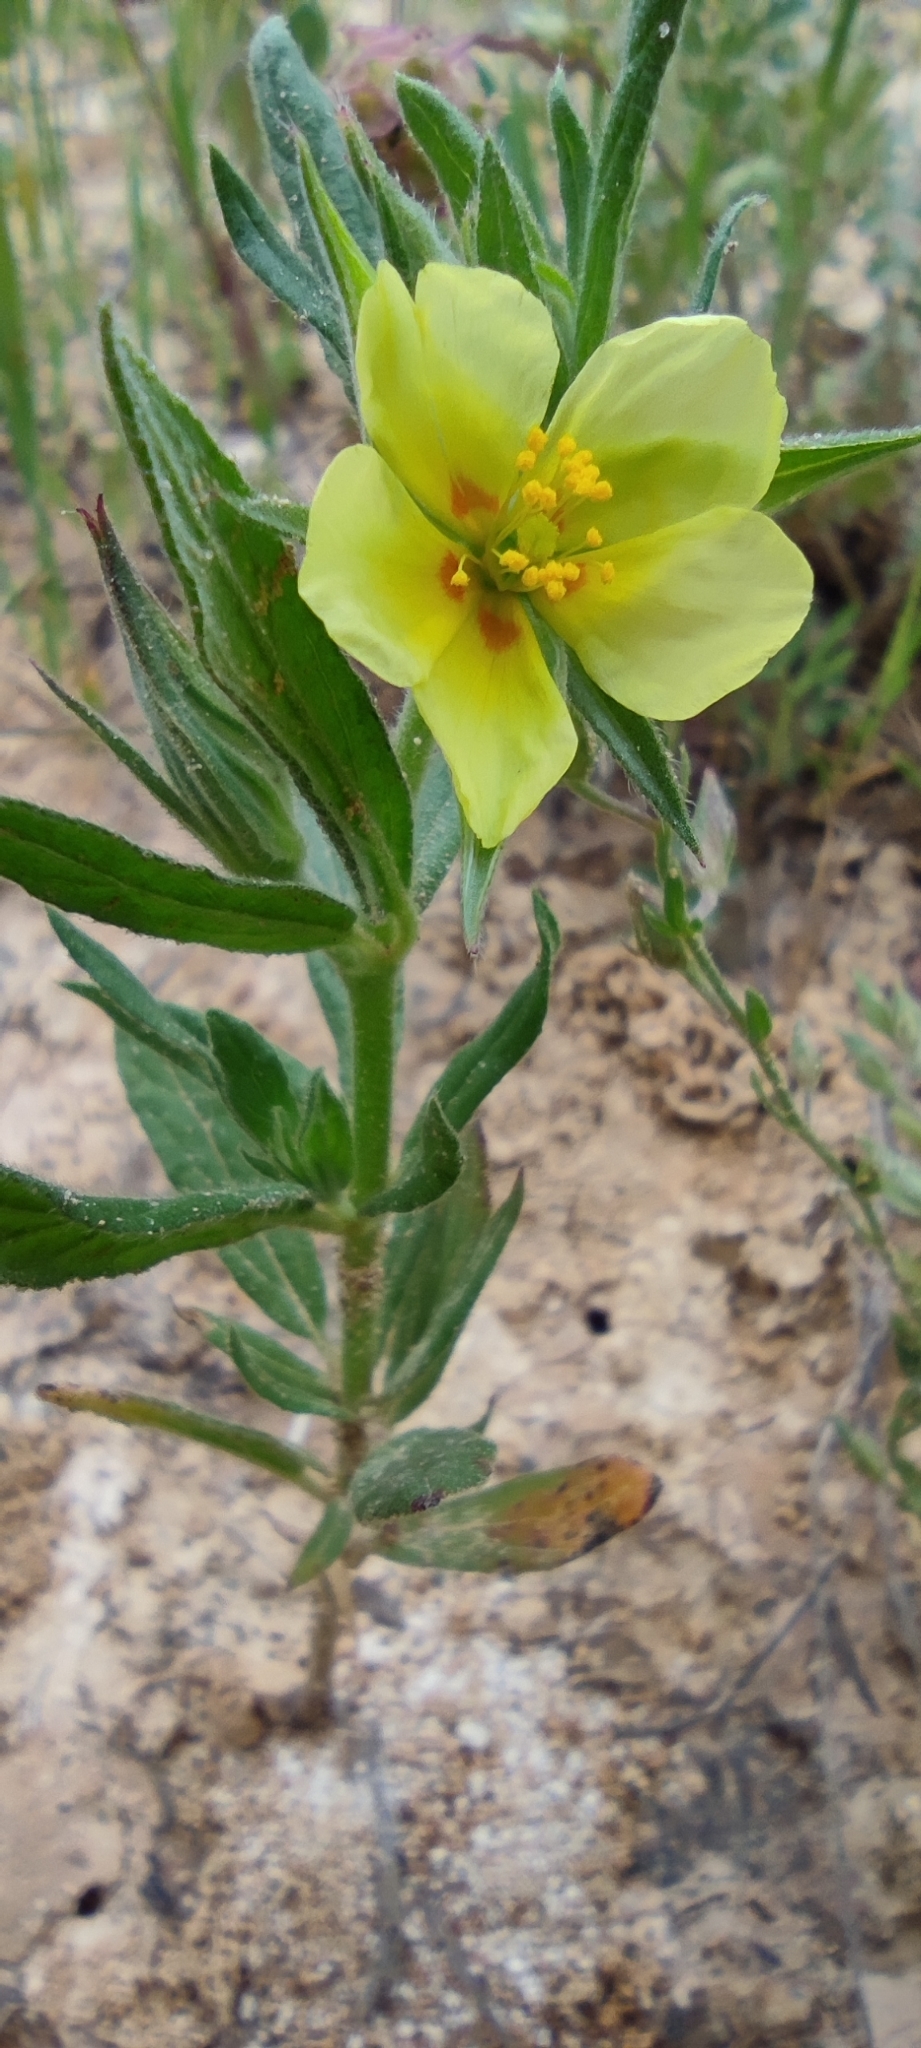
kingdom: Plantae
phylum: Tracheophyta
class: Magnoliopsida
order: Malvales
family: Cistaceae
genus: Helianthemum
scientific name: Helianthemum ledifolium
